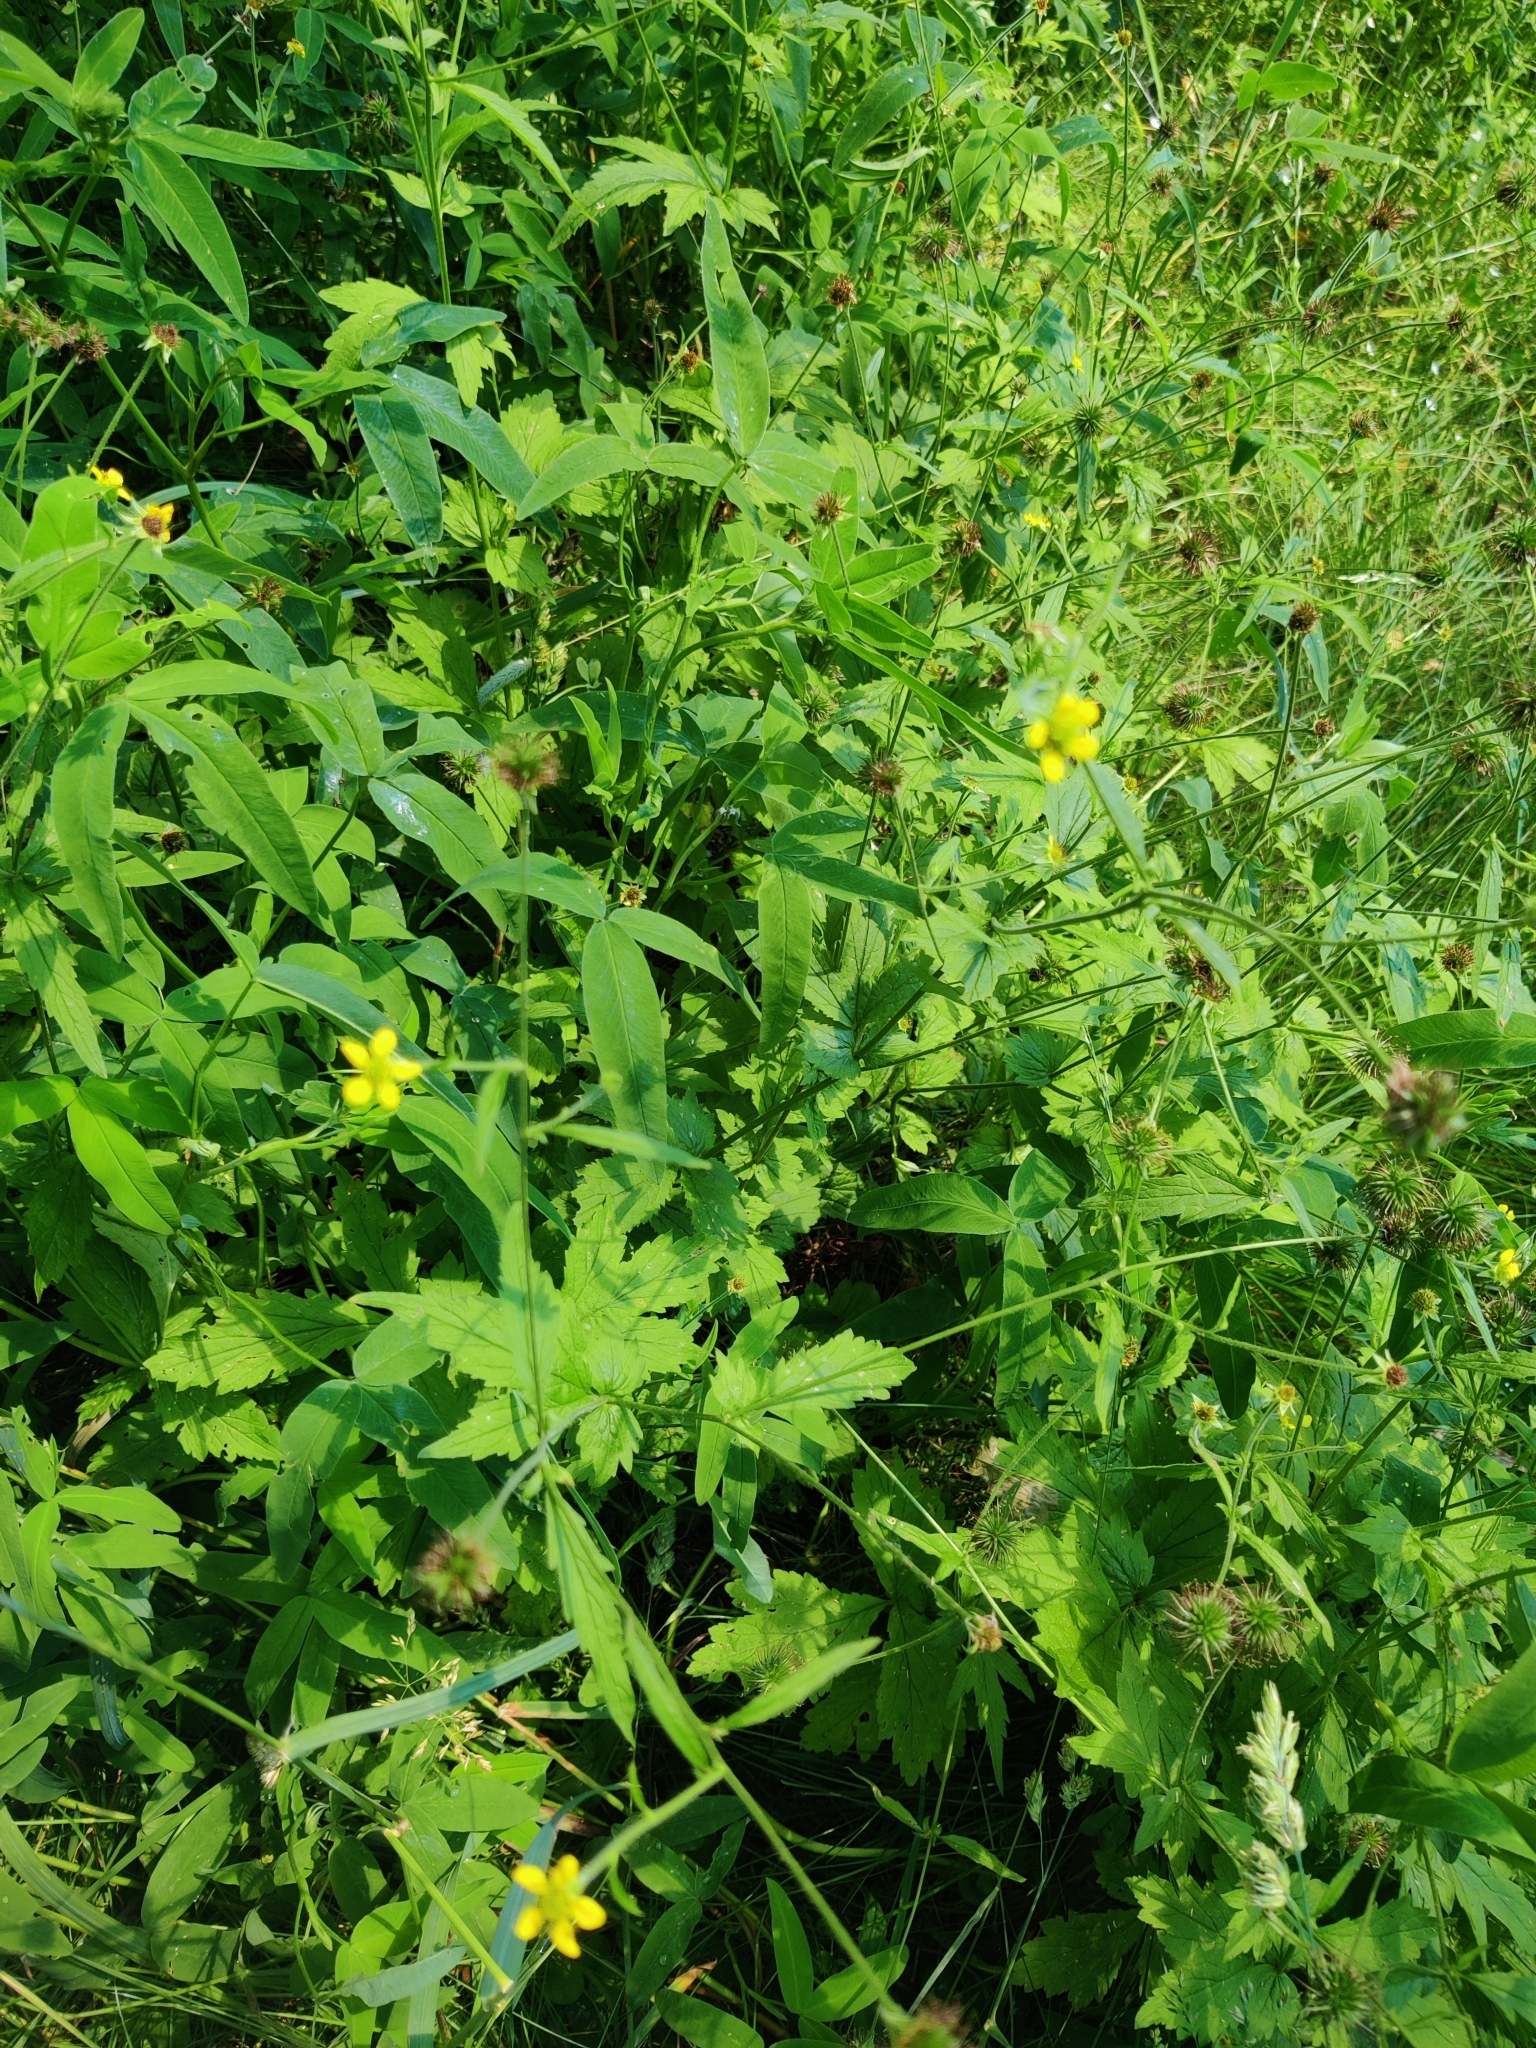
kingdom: Plantae
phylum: Tracheophyta
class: Magnoliopsida
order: Rosales
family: Rosaceae
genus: Geum
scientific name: Geum urbanum
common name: Wood avens
